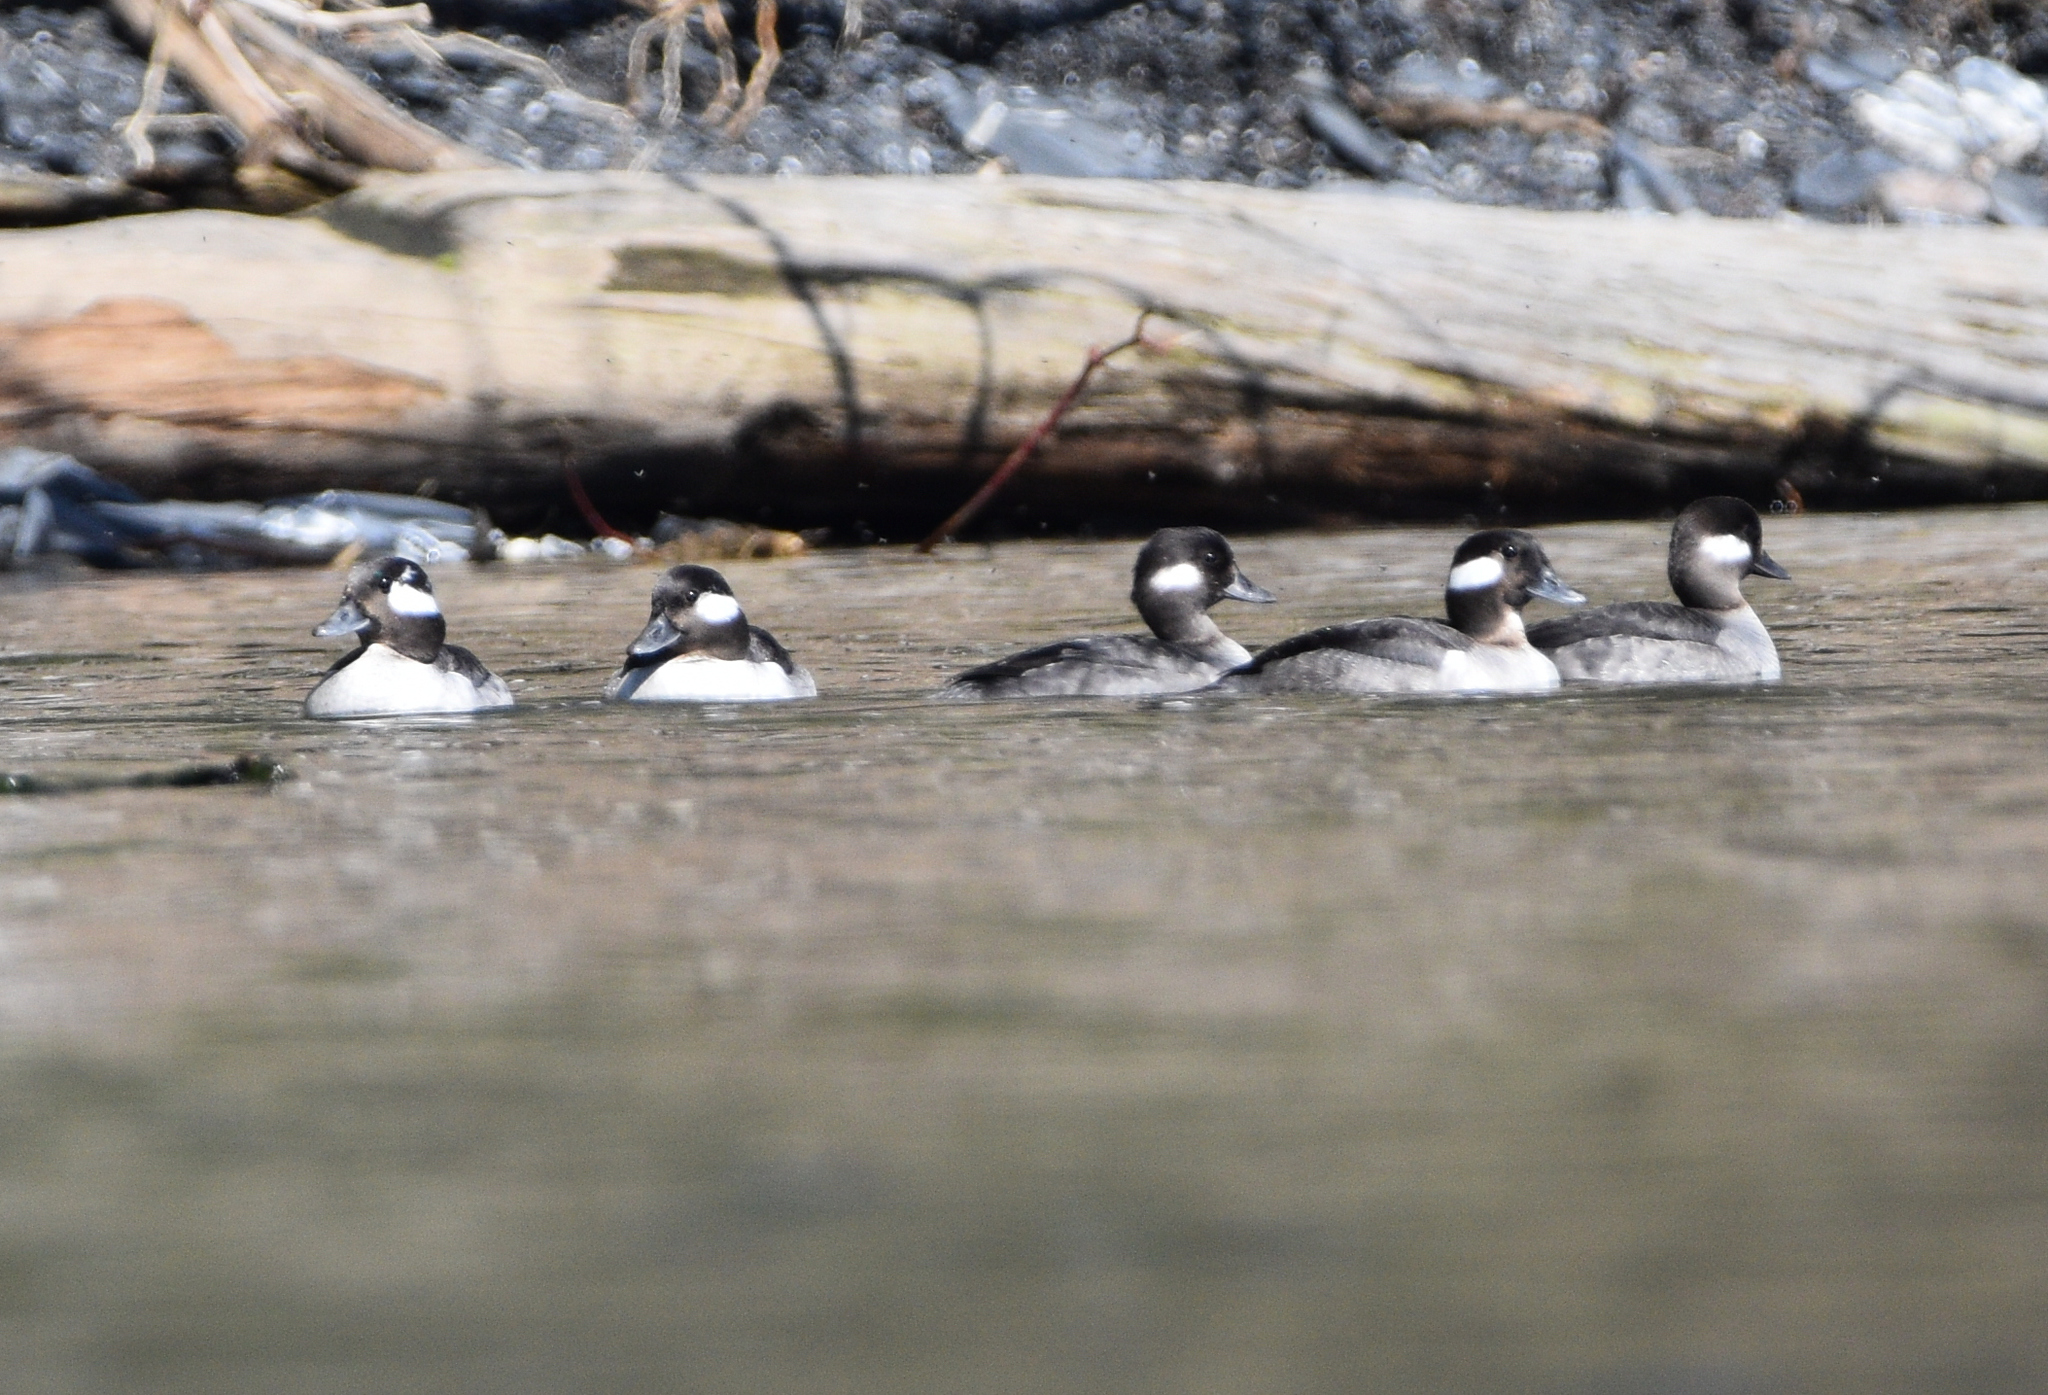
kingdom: Animalia
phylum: Chordata
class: Aves
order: Anseriformes
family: Anatidae
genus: Bucephala
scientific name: Bucephala albeola
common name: Bufflehead
